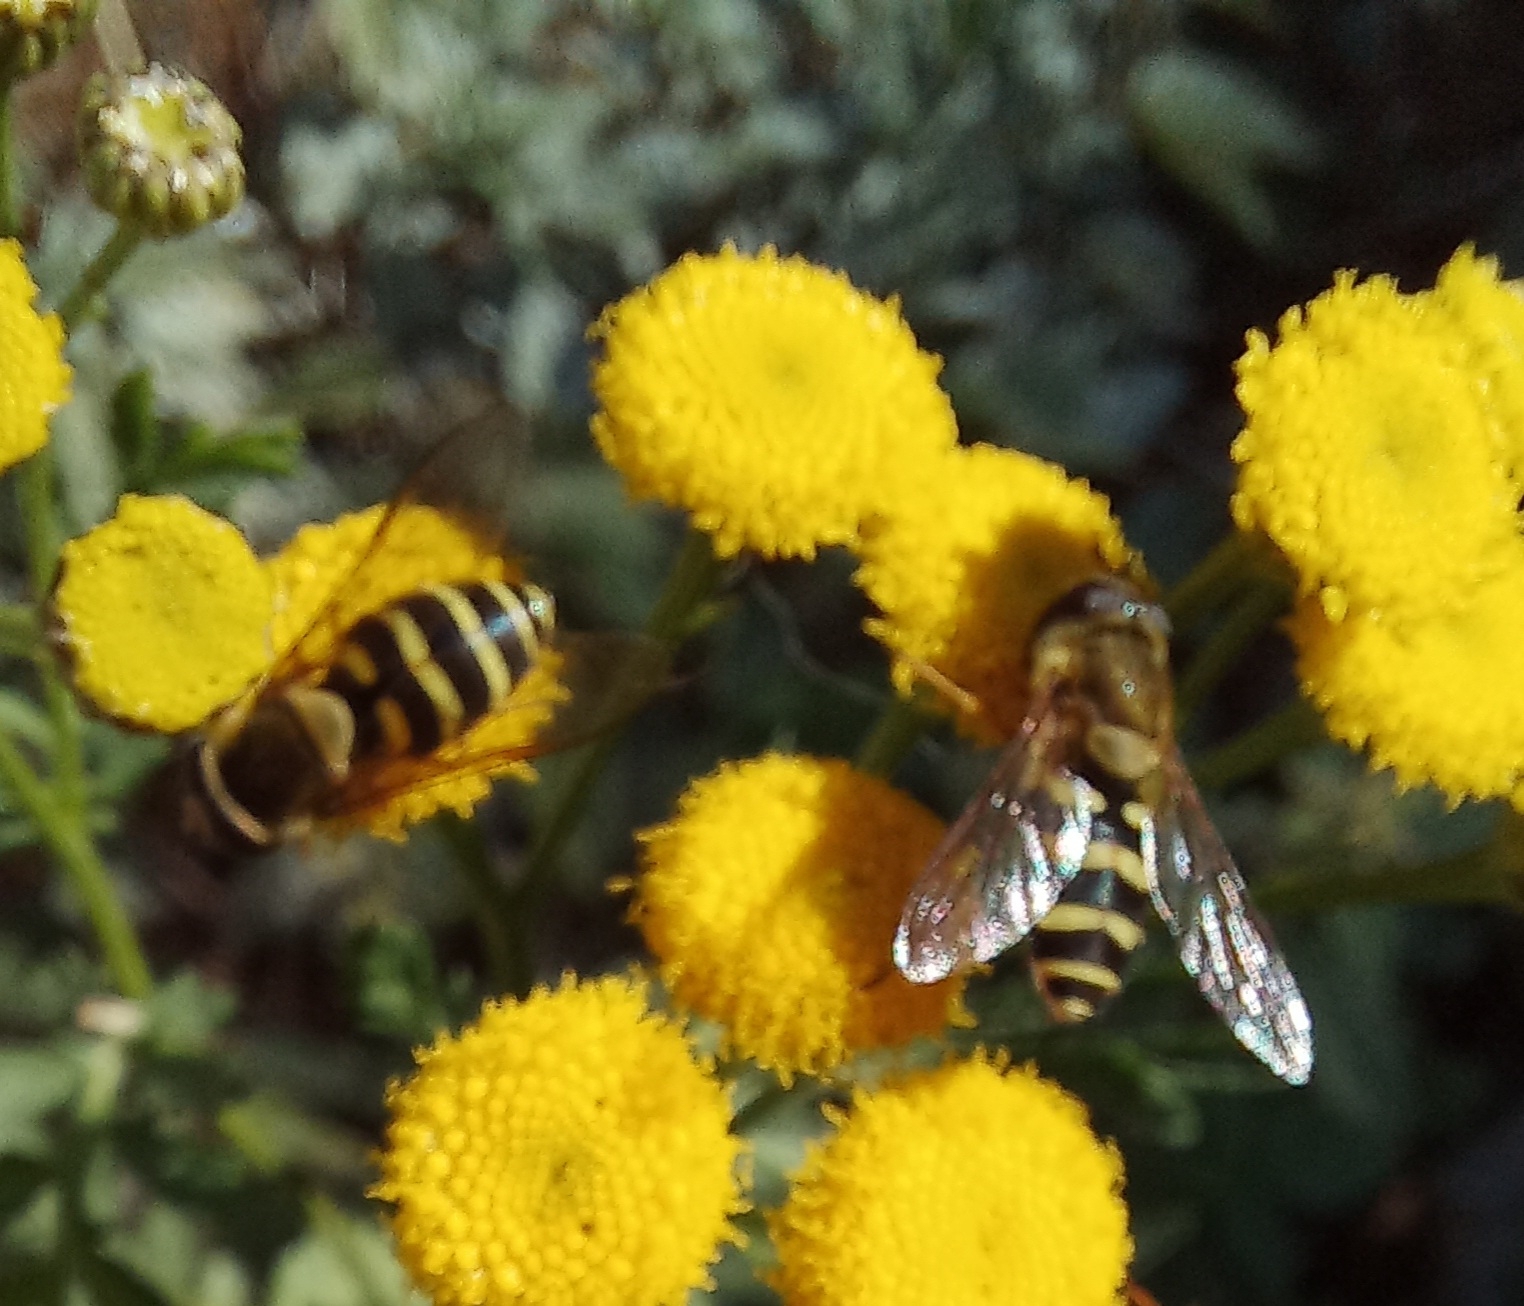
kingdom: Animalia
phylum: Arthropoda
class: Insecta
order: Diptera
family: Syrphidae
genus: Syrphus
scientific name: Syrphus
